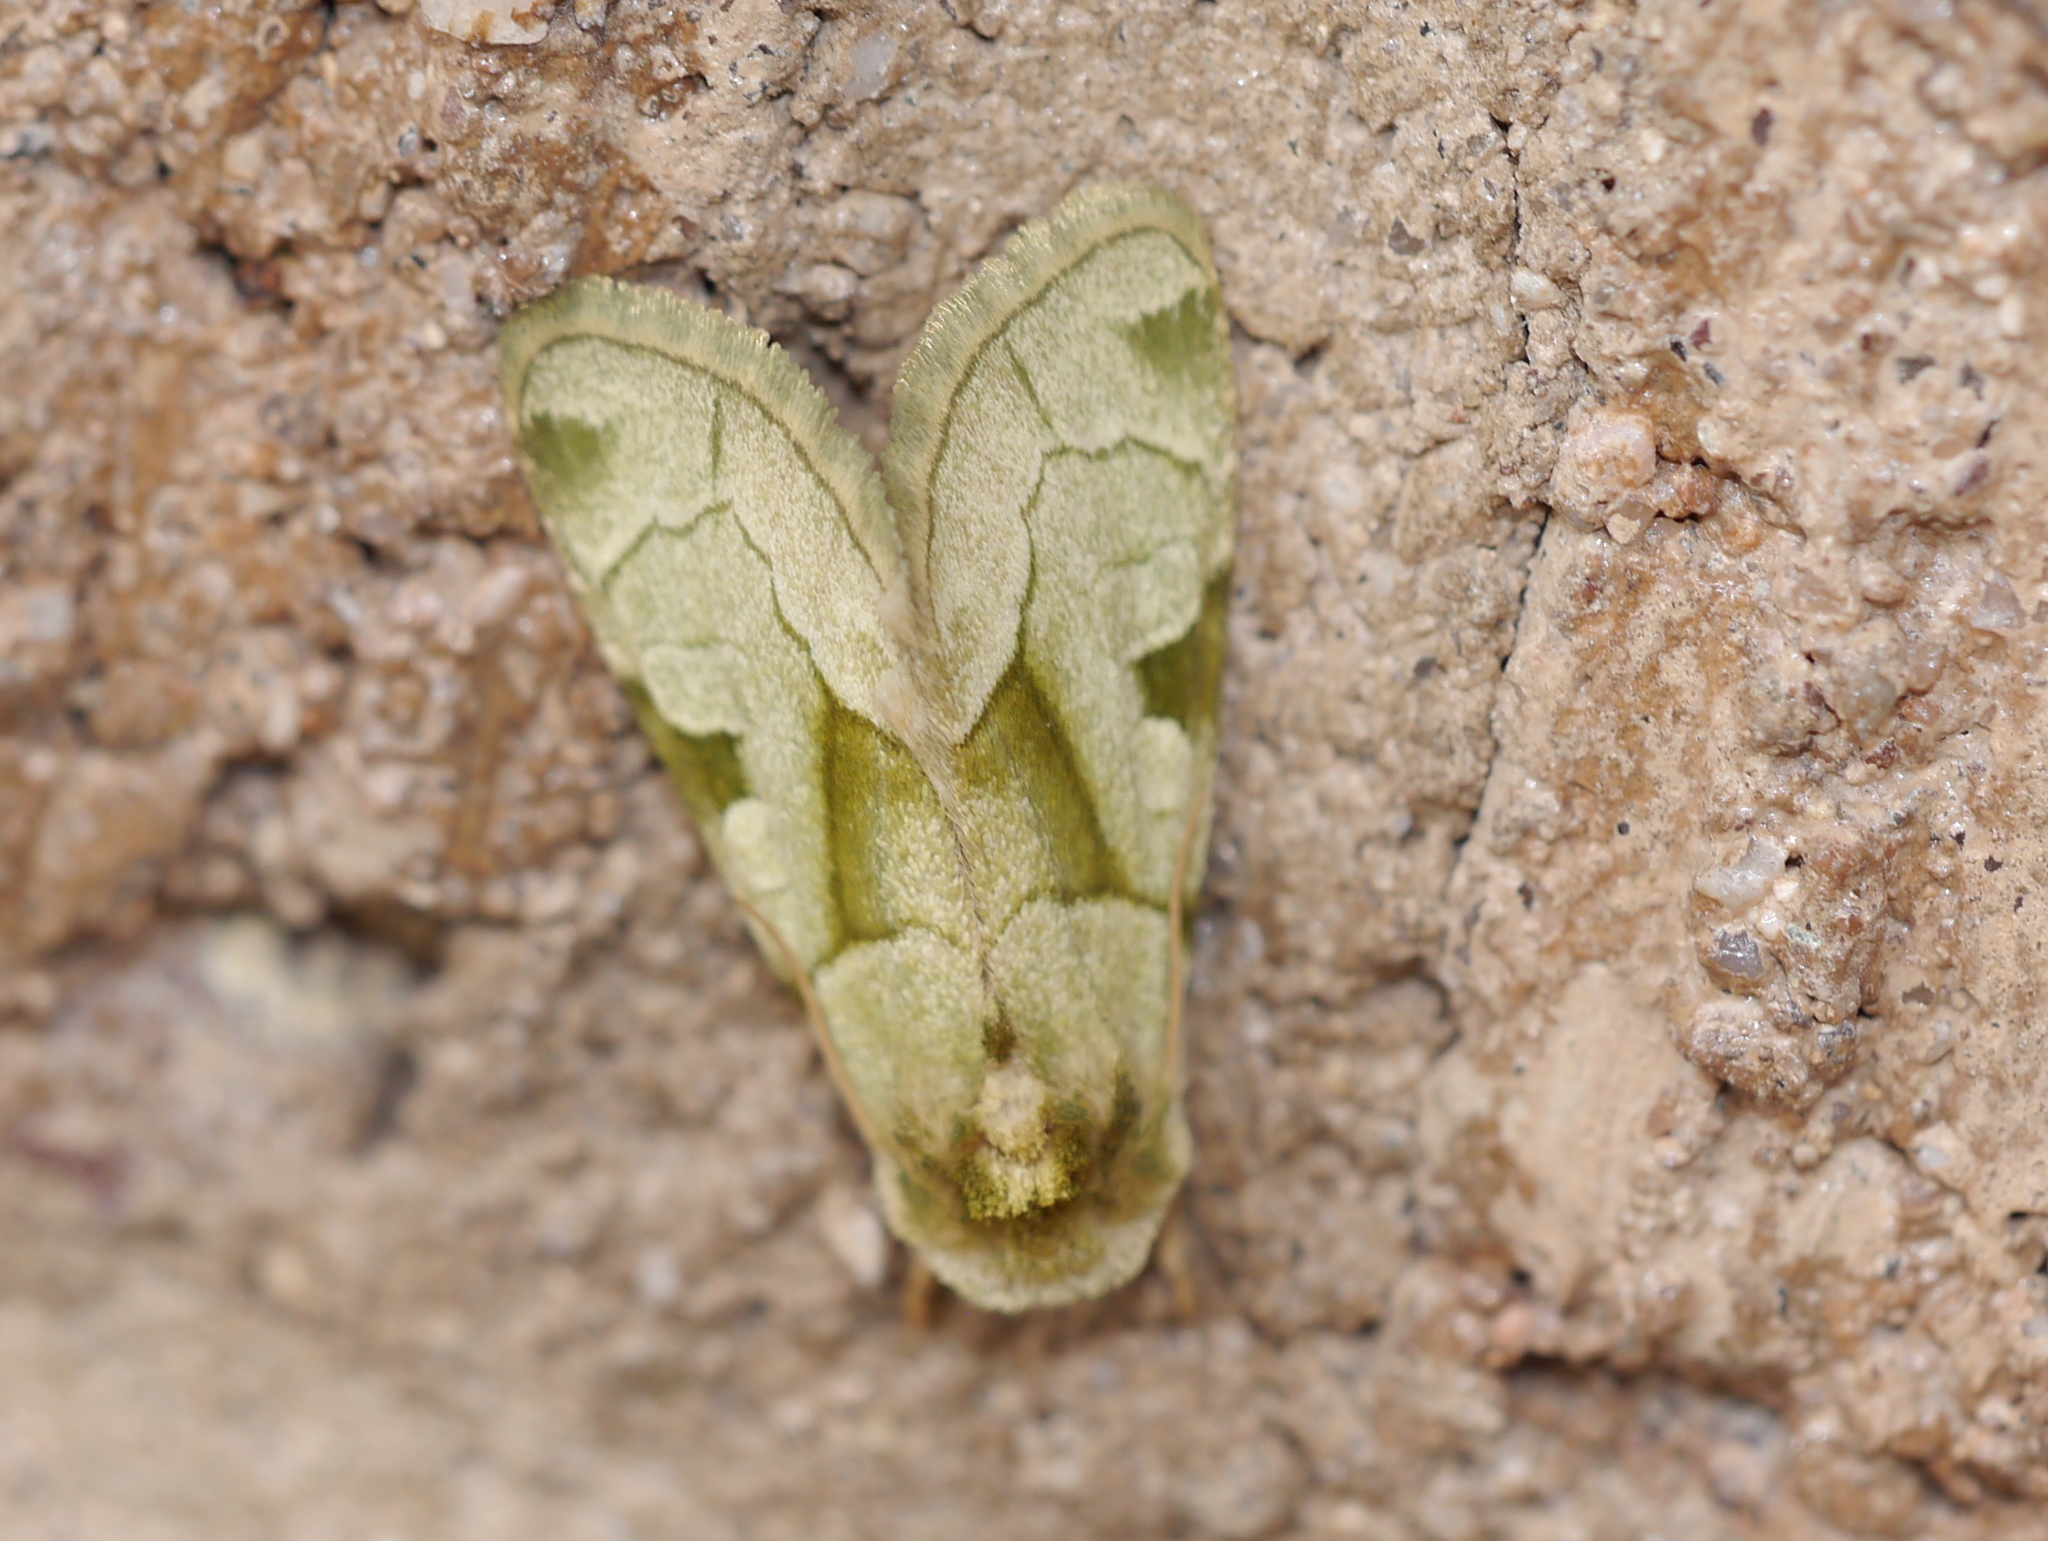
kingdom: Animalia
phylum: Arthropoda
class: Insecta
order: Lepidoptera
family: Noctuidae
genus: Oslaria
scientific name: Oslaria viridifera
